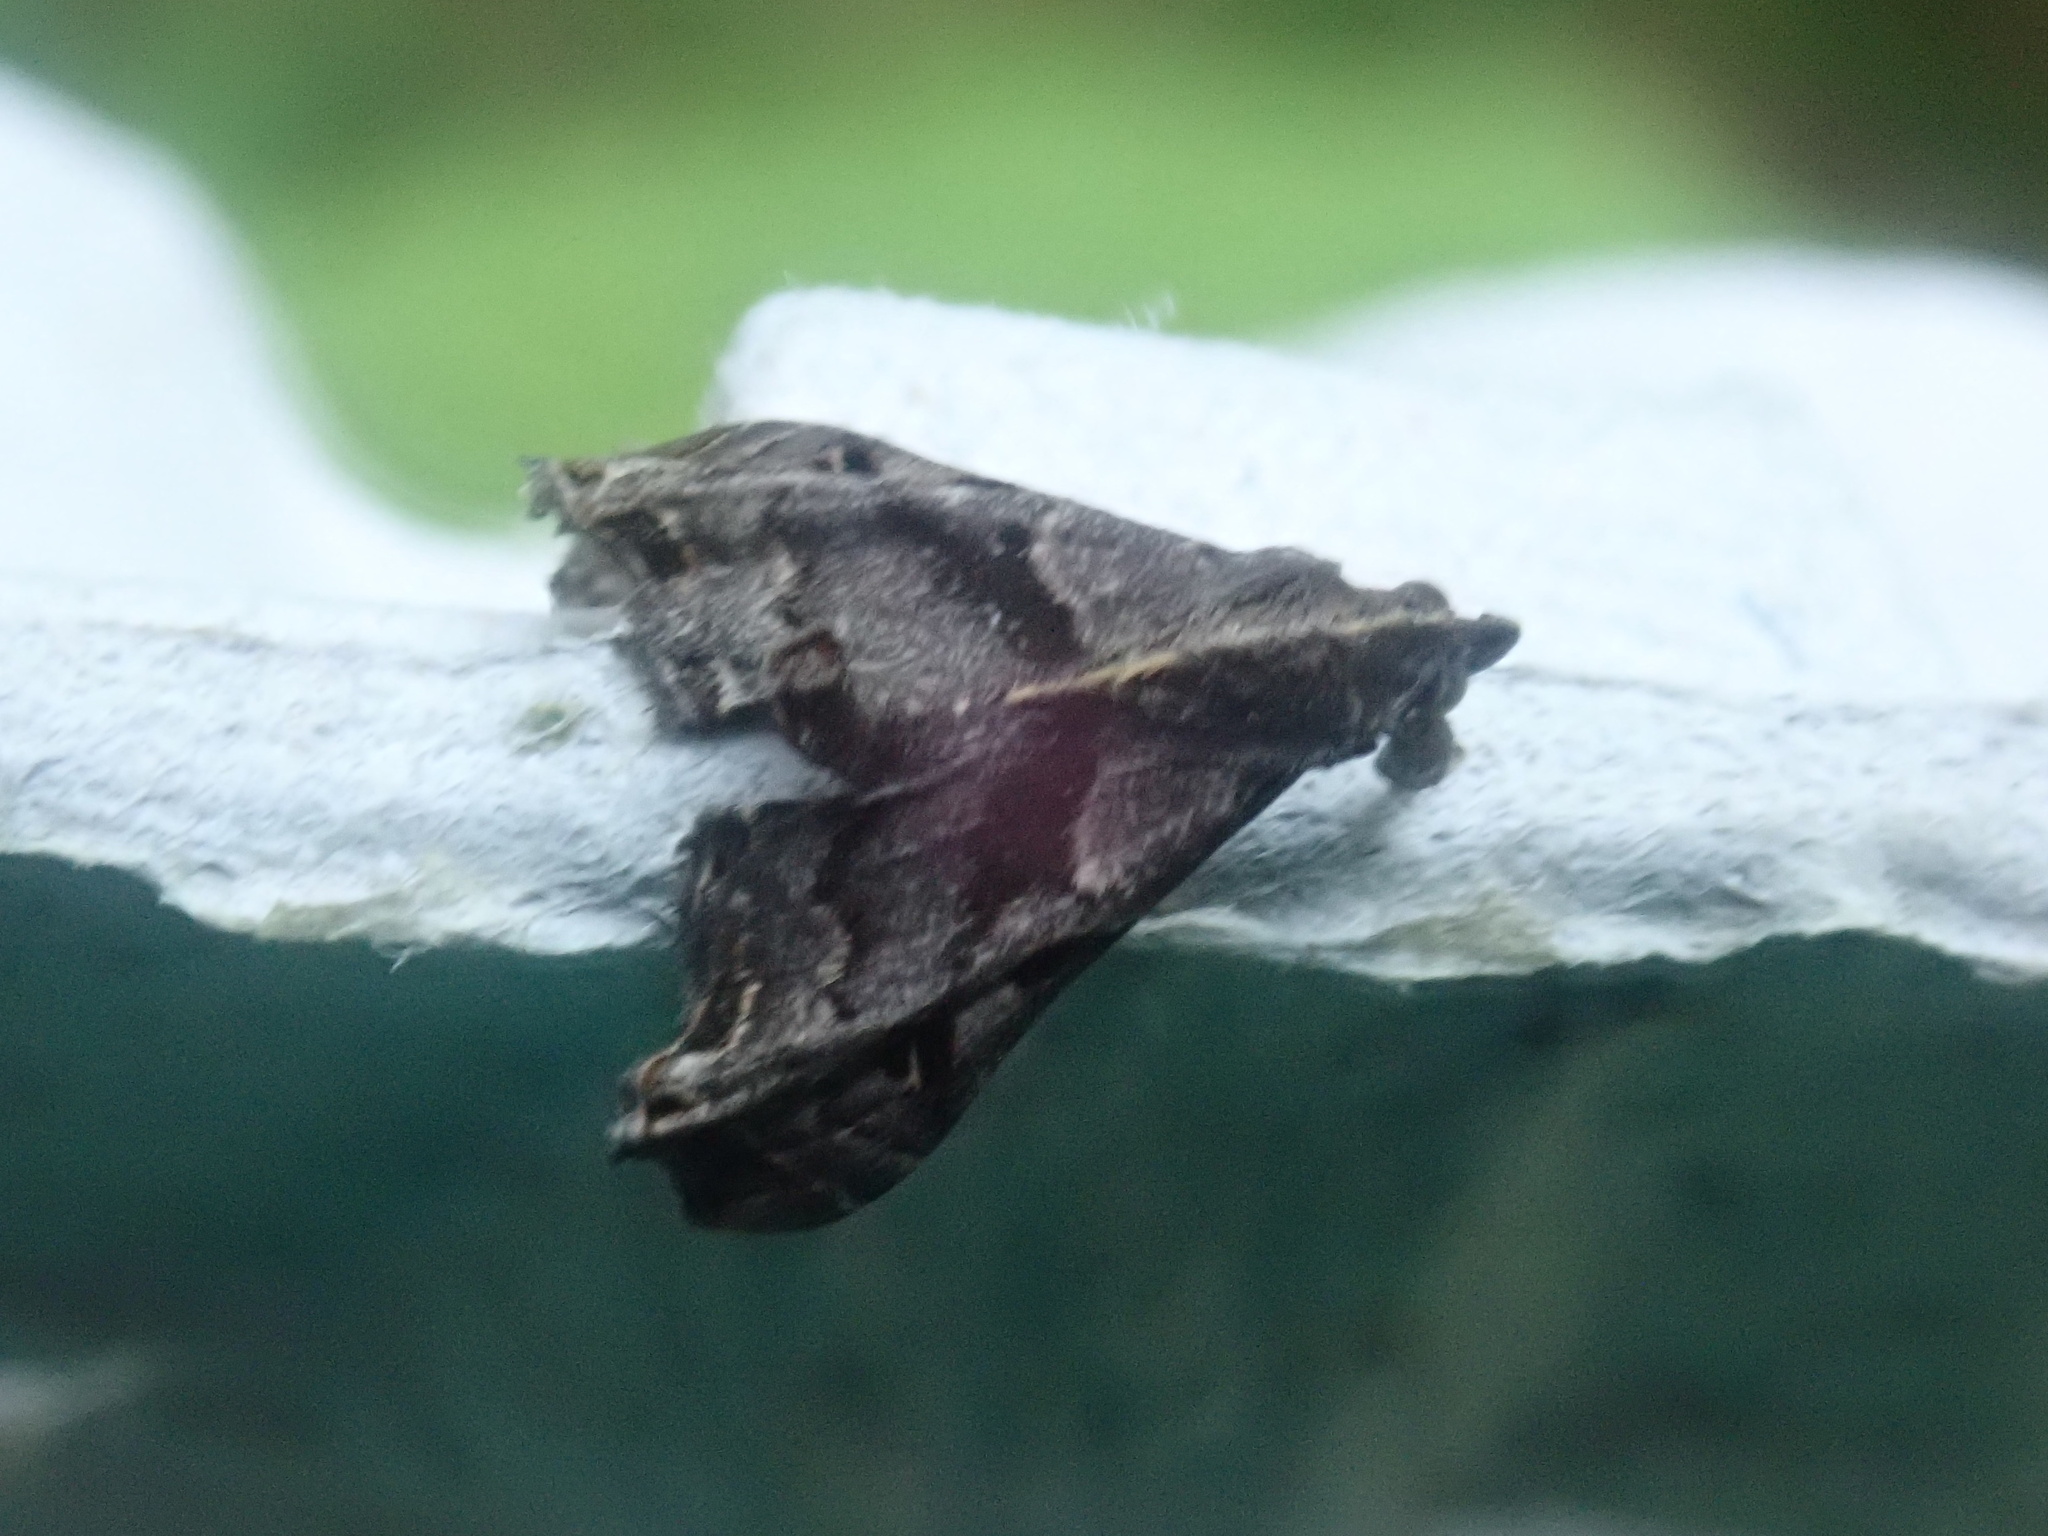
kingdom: Animalia
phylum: Arthropoda
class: Insecta
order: Lepidoptera
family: Erebidae
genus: Palthis
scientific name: Palthis asopialis
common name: Faint-spotted palthis moth
